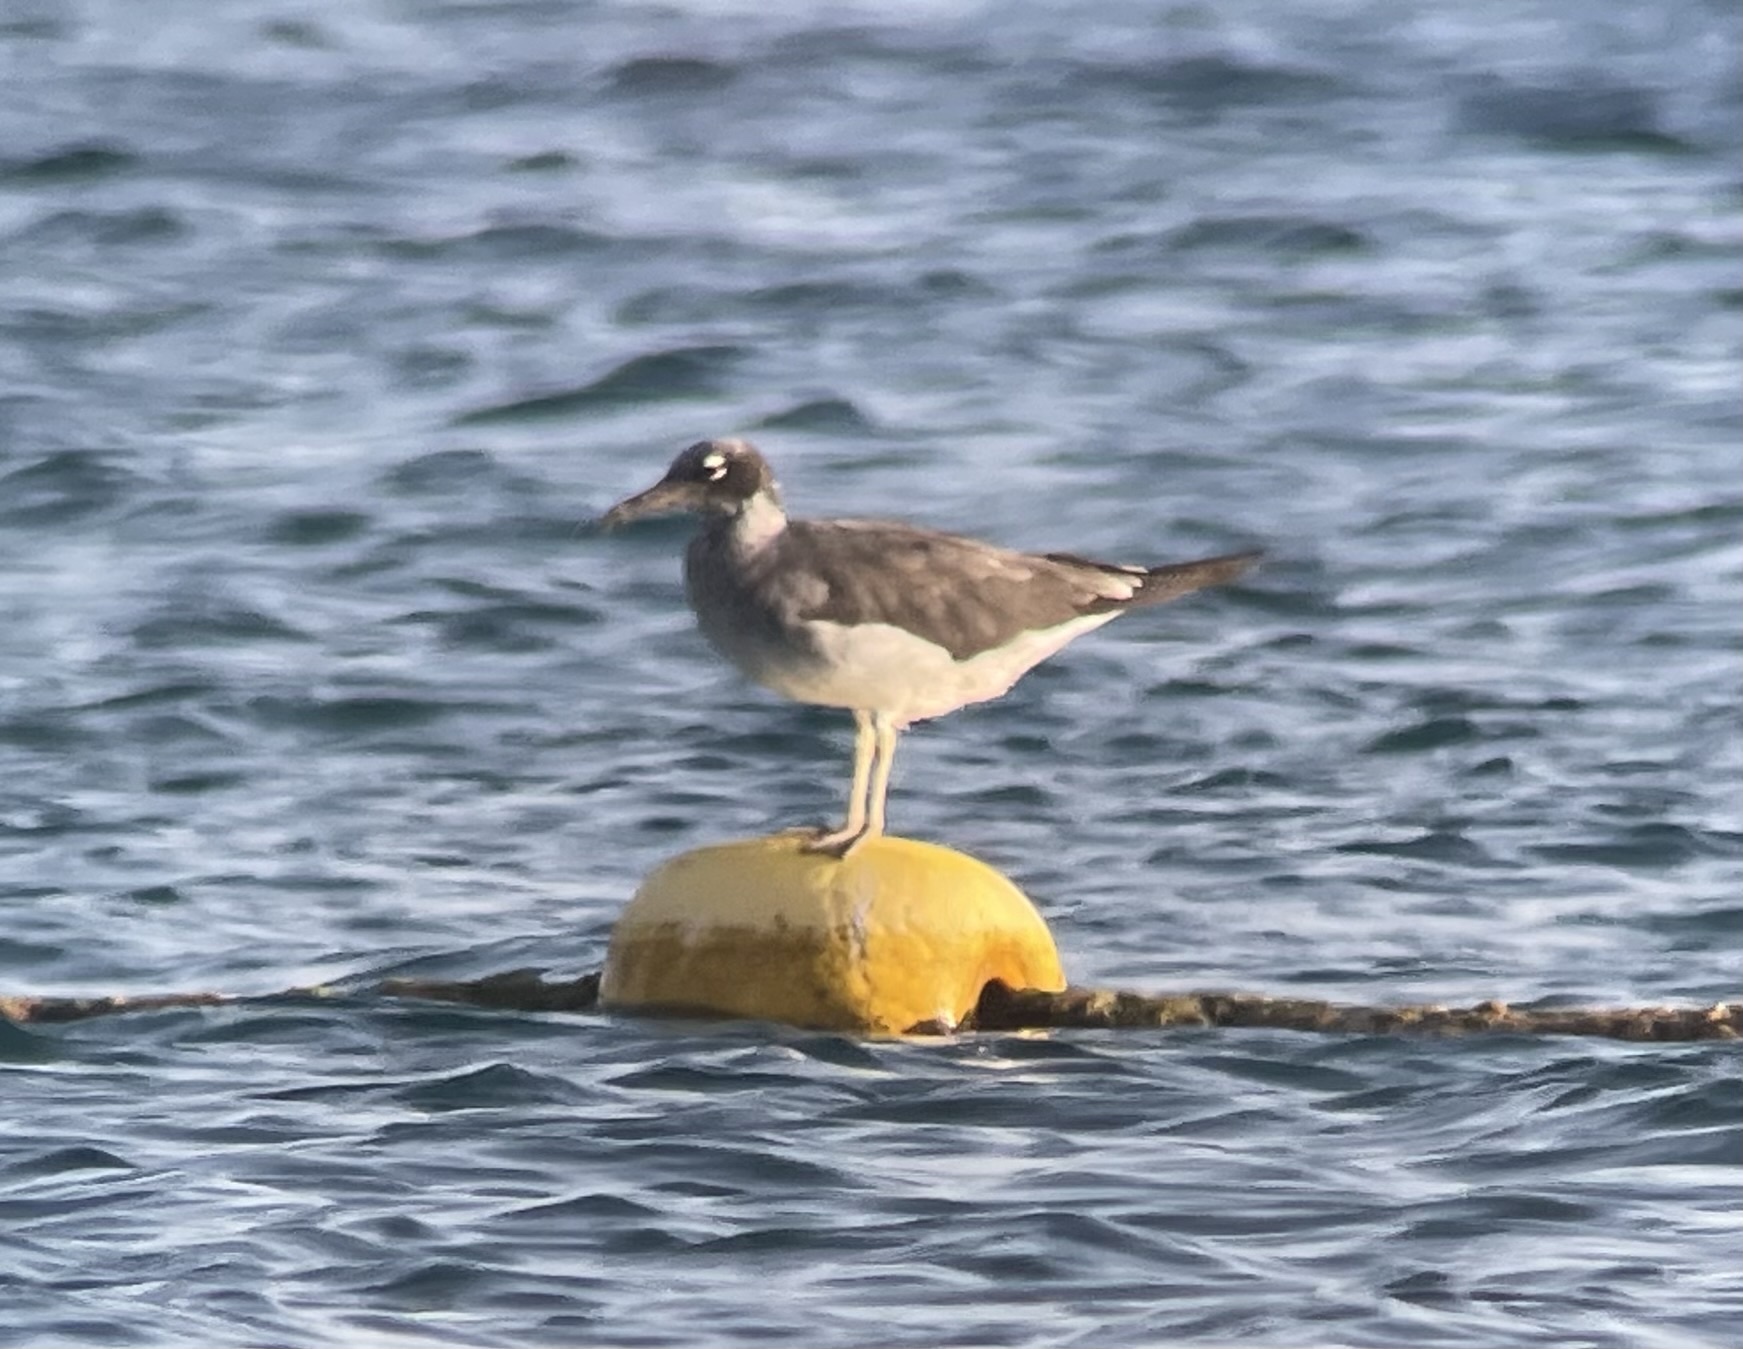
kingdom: Animalia
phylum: Chordata
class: Aves
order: Charadriiformes
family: Laridae
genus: Ichthyaetus
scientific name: Ichthyaetus leucophthalmus
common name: White-eyed gull
